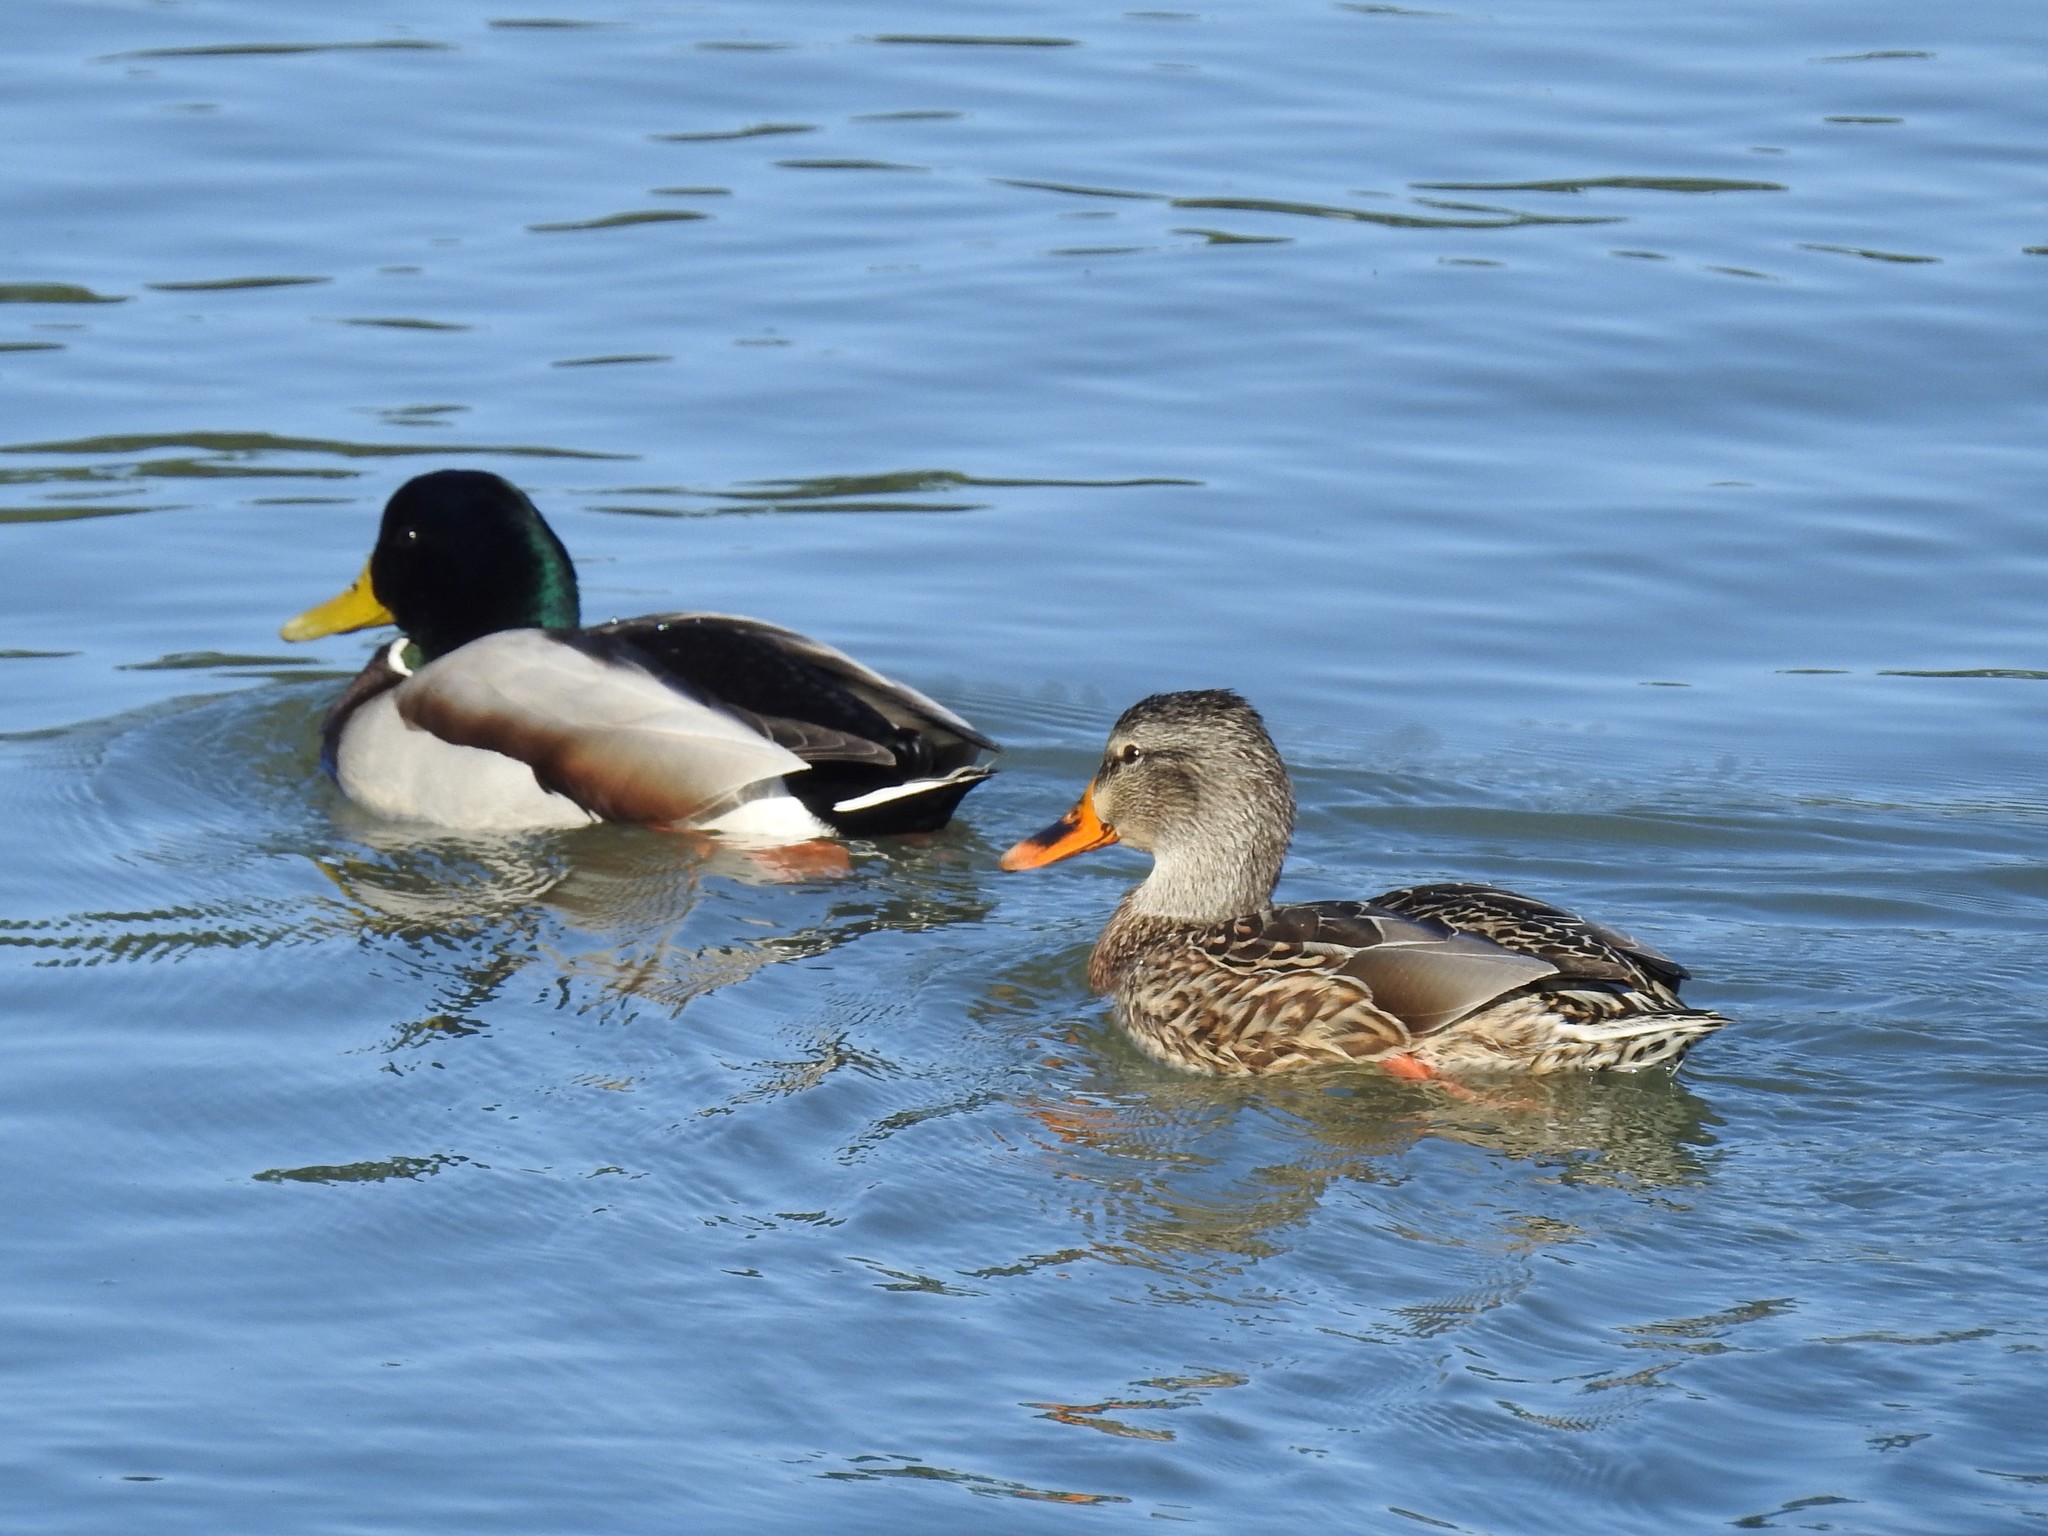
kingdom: Animalia
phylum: Chordata
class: Aves
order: Anseriformes
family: Anatidae
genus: Anas
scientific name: Anas platyrhynchos
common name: Mallard
